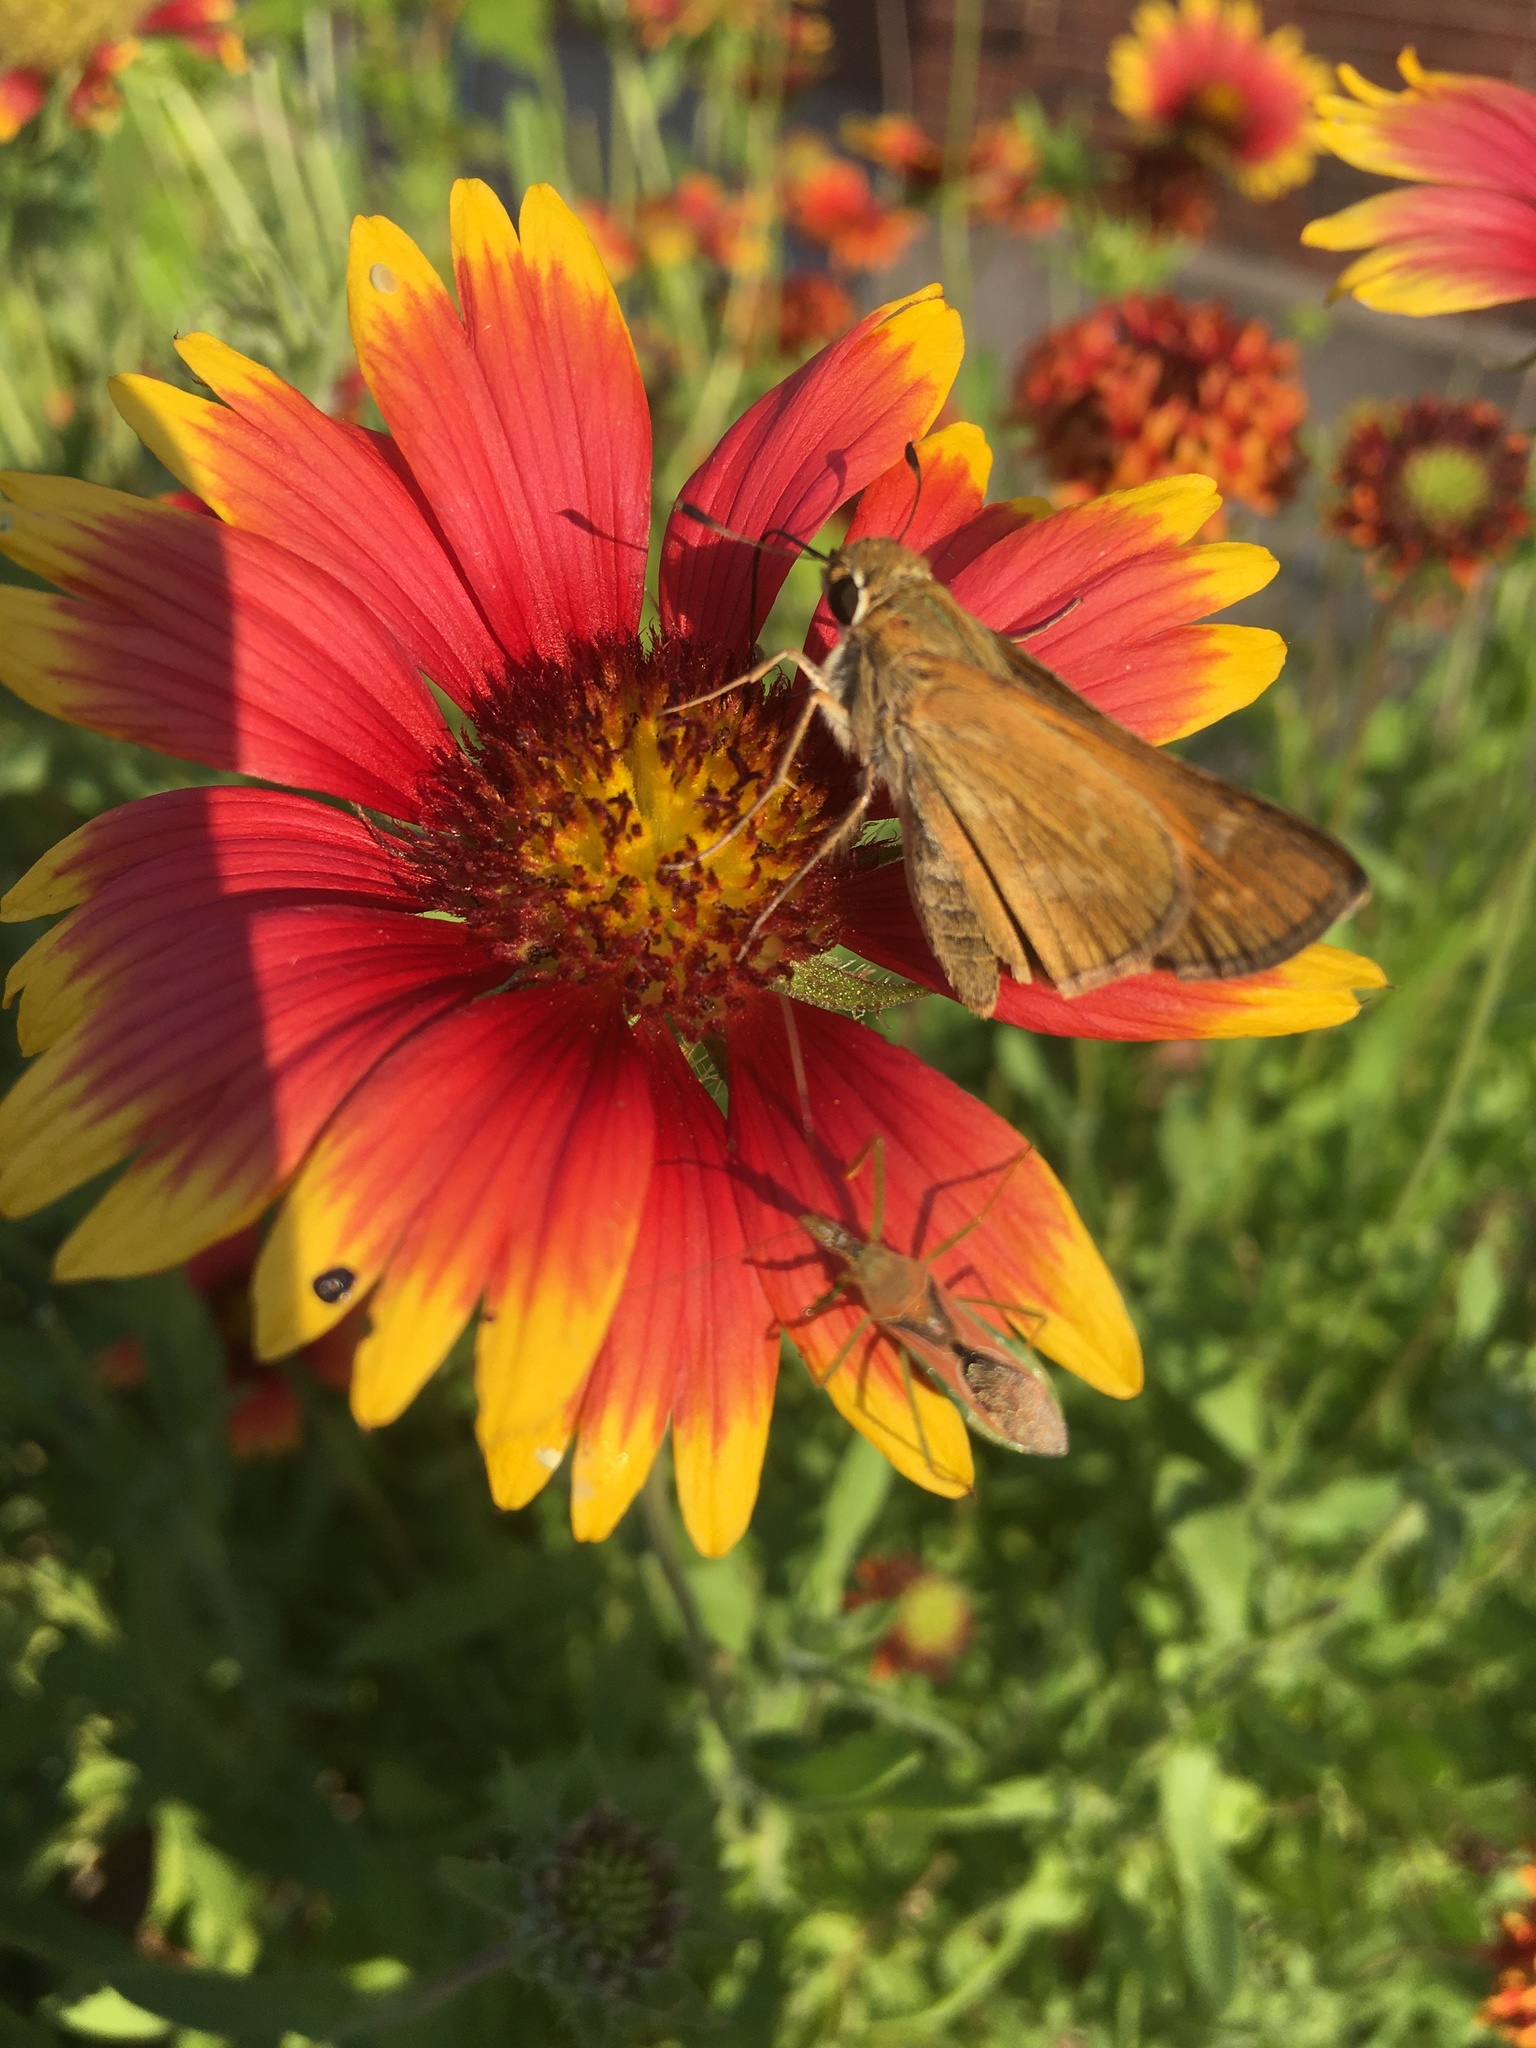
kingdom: Animalia
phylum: Arthropoda
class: Insecta
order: Lepidoptera
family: Hesperiidae
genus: Atalopedes
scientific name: Atalopedes
